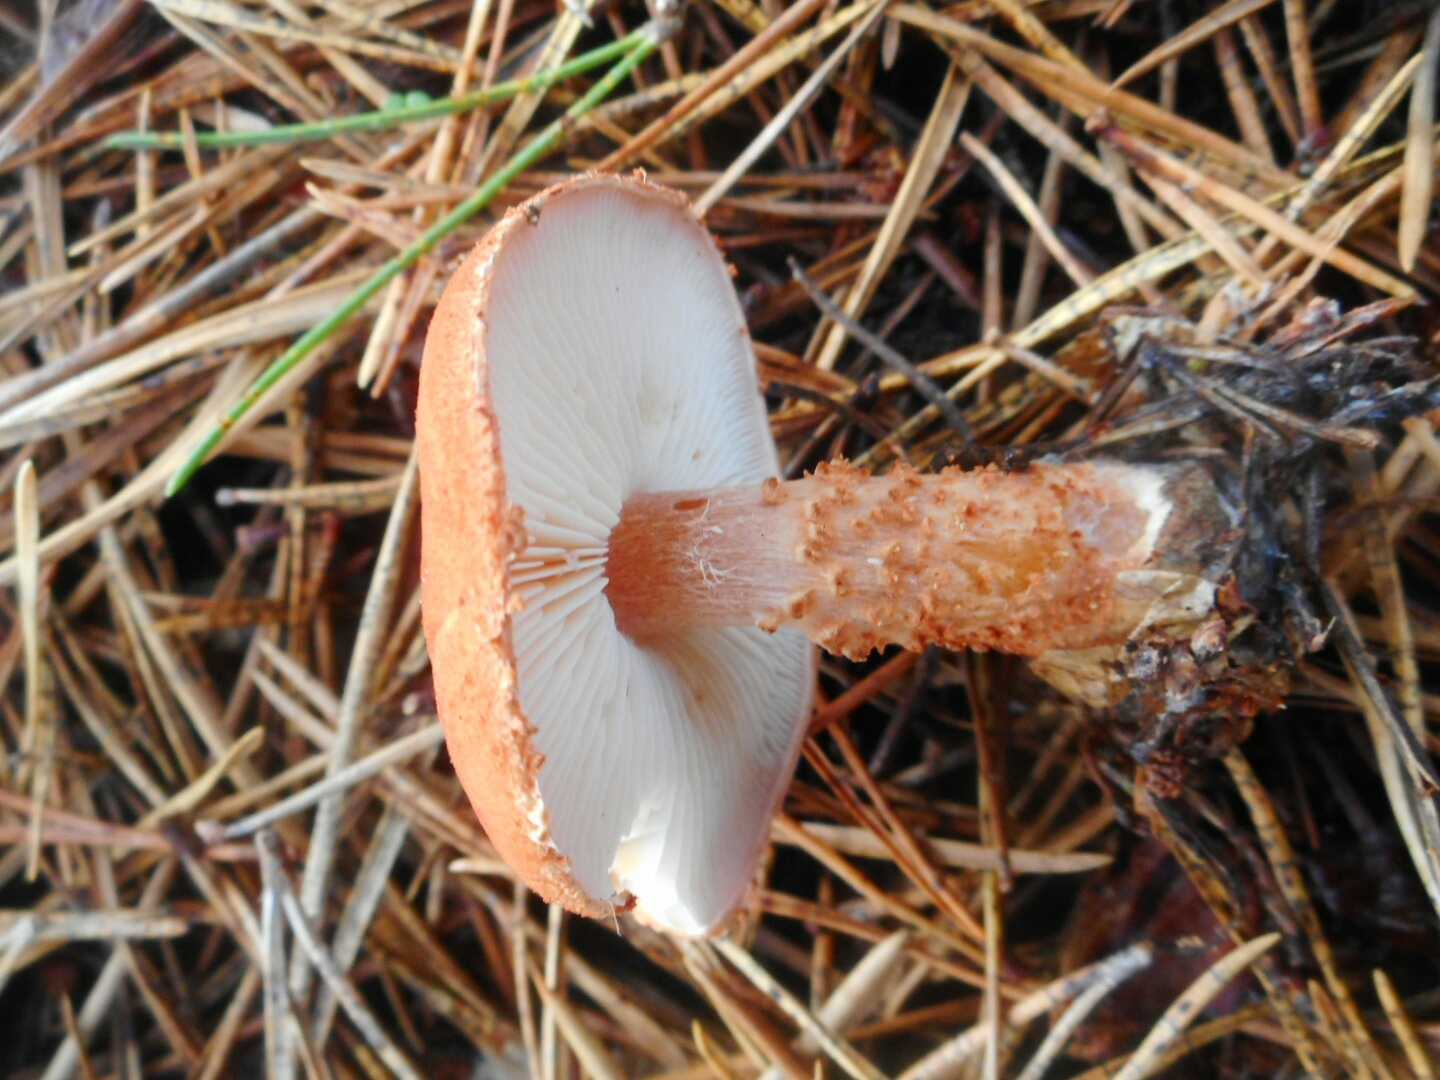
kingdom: Fungi
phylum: Basidiomycota
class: Agaricomycetes
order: Agaricales
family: Agaricaceae
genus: Cystodermella
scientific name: Cystodermella cinnabarina
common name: Cinnabar powdercap
